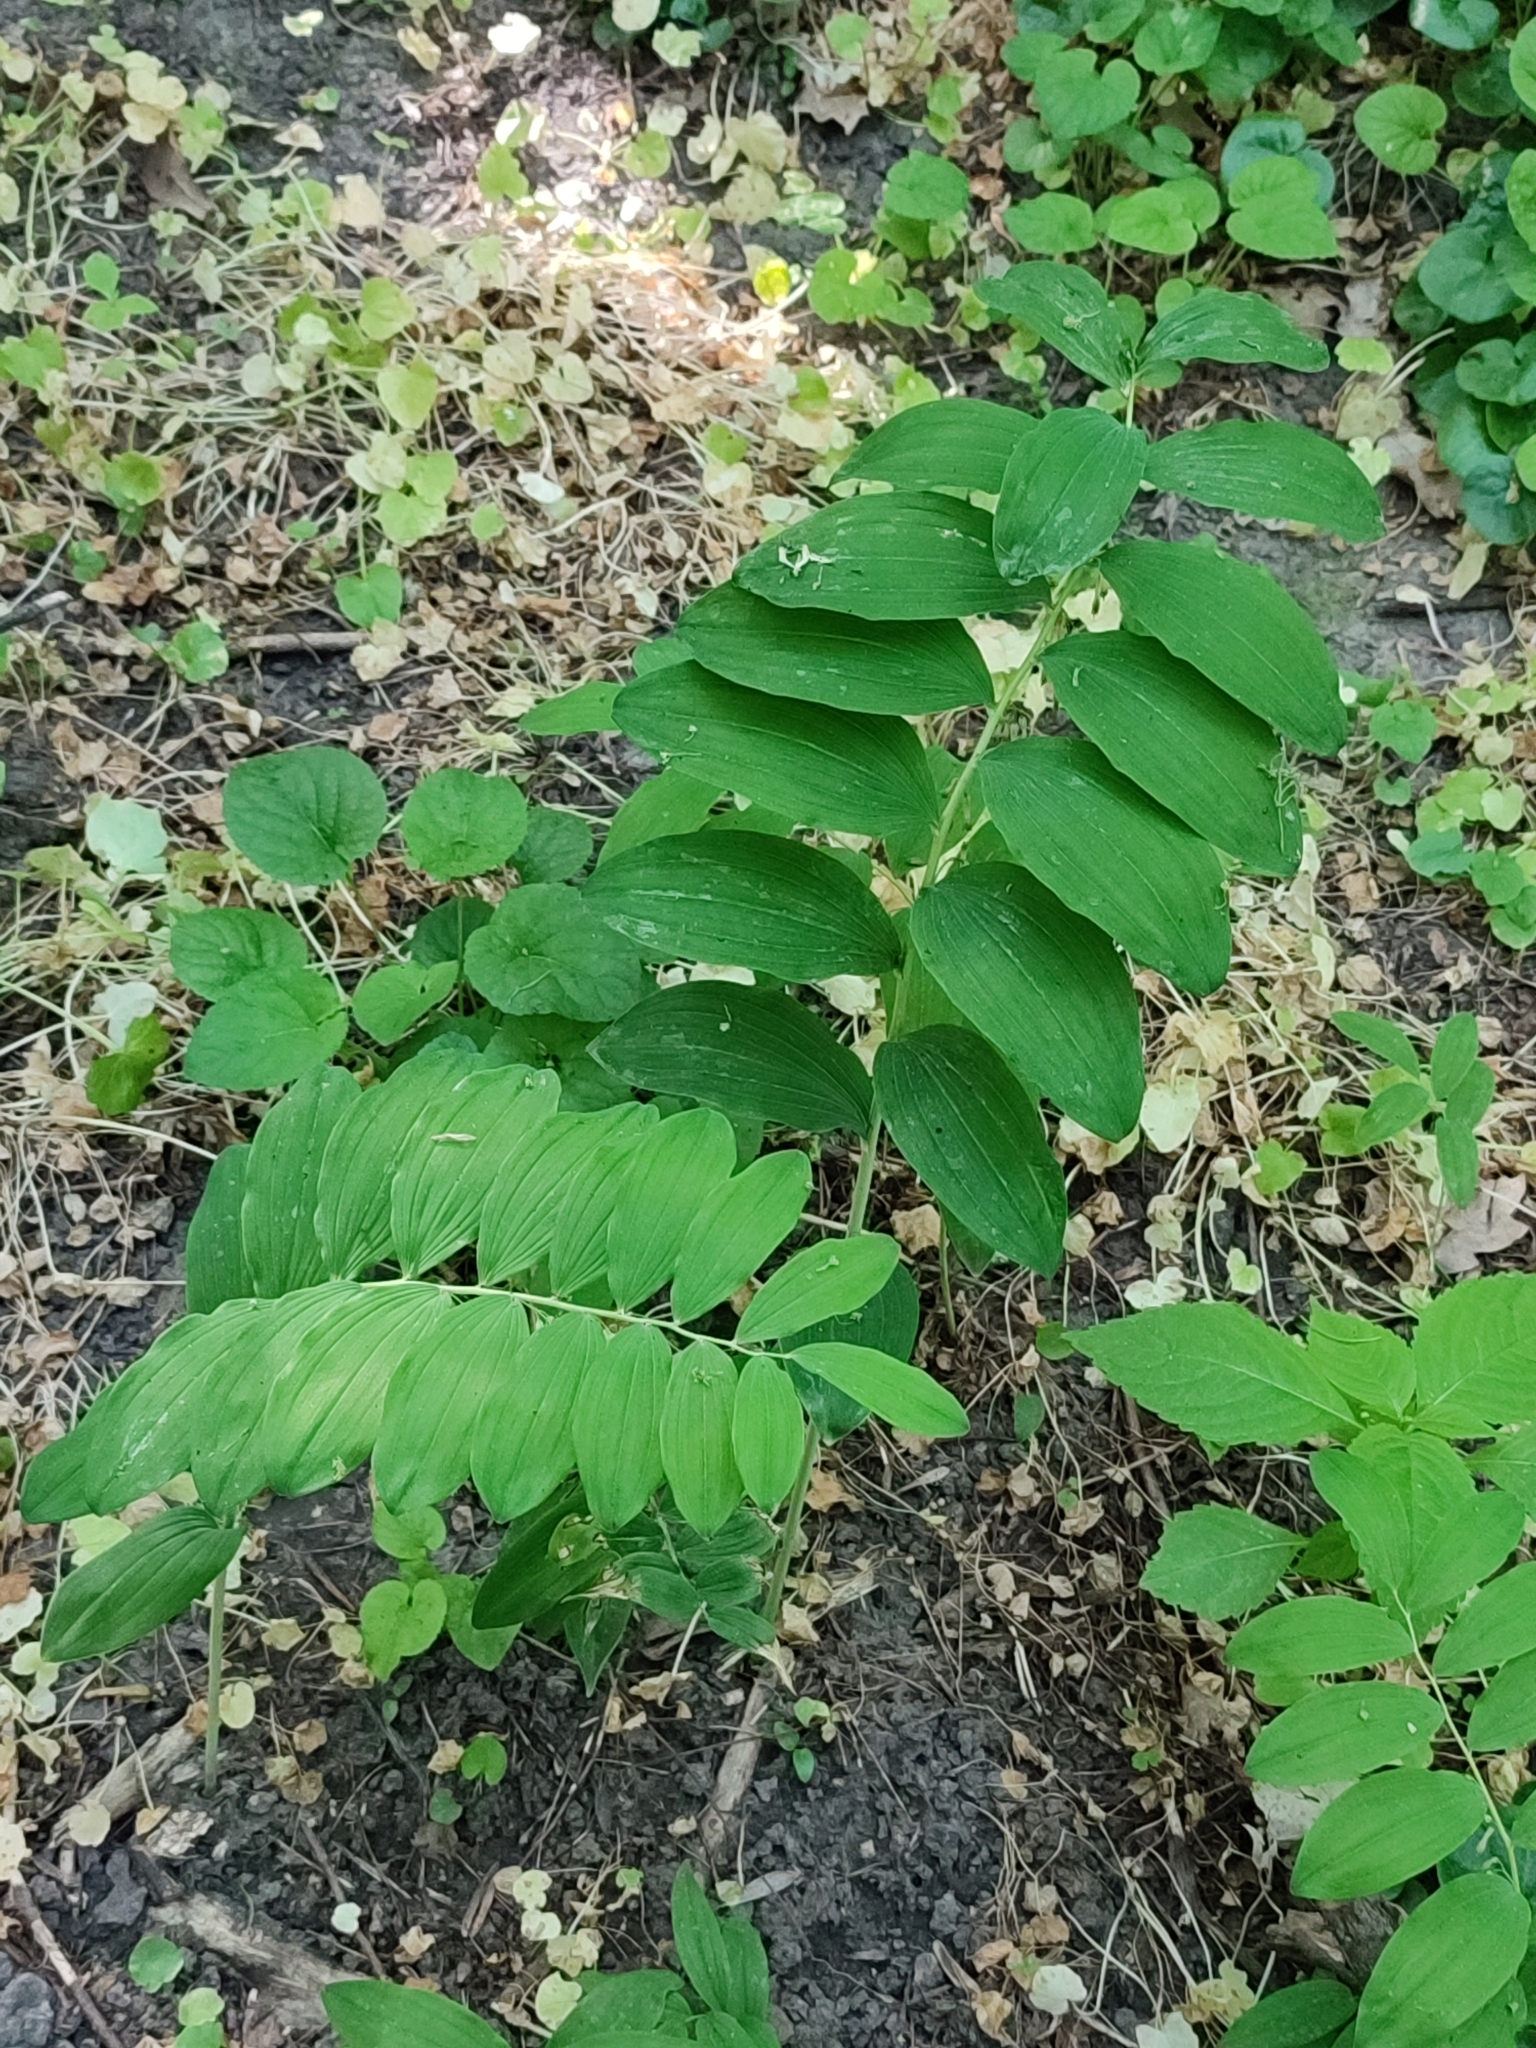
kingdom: Plantae
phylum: Tracheophyta
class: Liliopsida
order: Asparagales
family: Asparagaceae
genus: Polygonatum
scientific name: Polygonatum multiflorum
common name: Solomon's-seal
